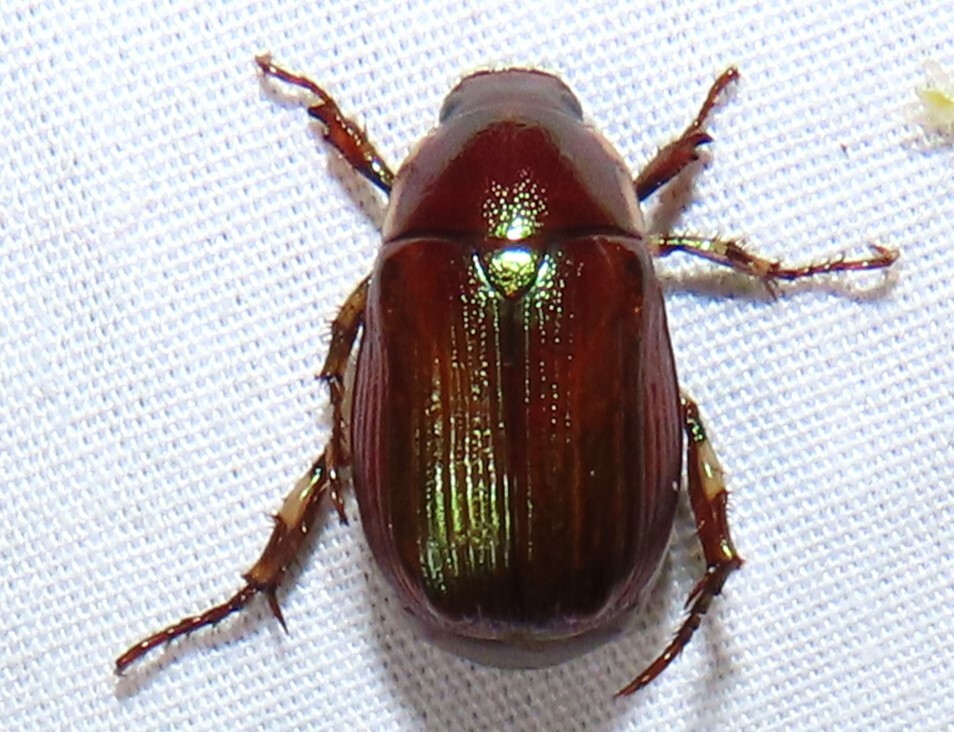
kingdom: Animalia
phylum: Arthropoda
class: Insecta
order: Coleoptera
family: Scarabaeidae
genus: Callistethus
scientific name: Callistethus marginatus
